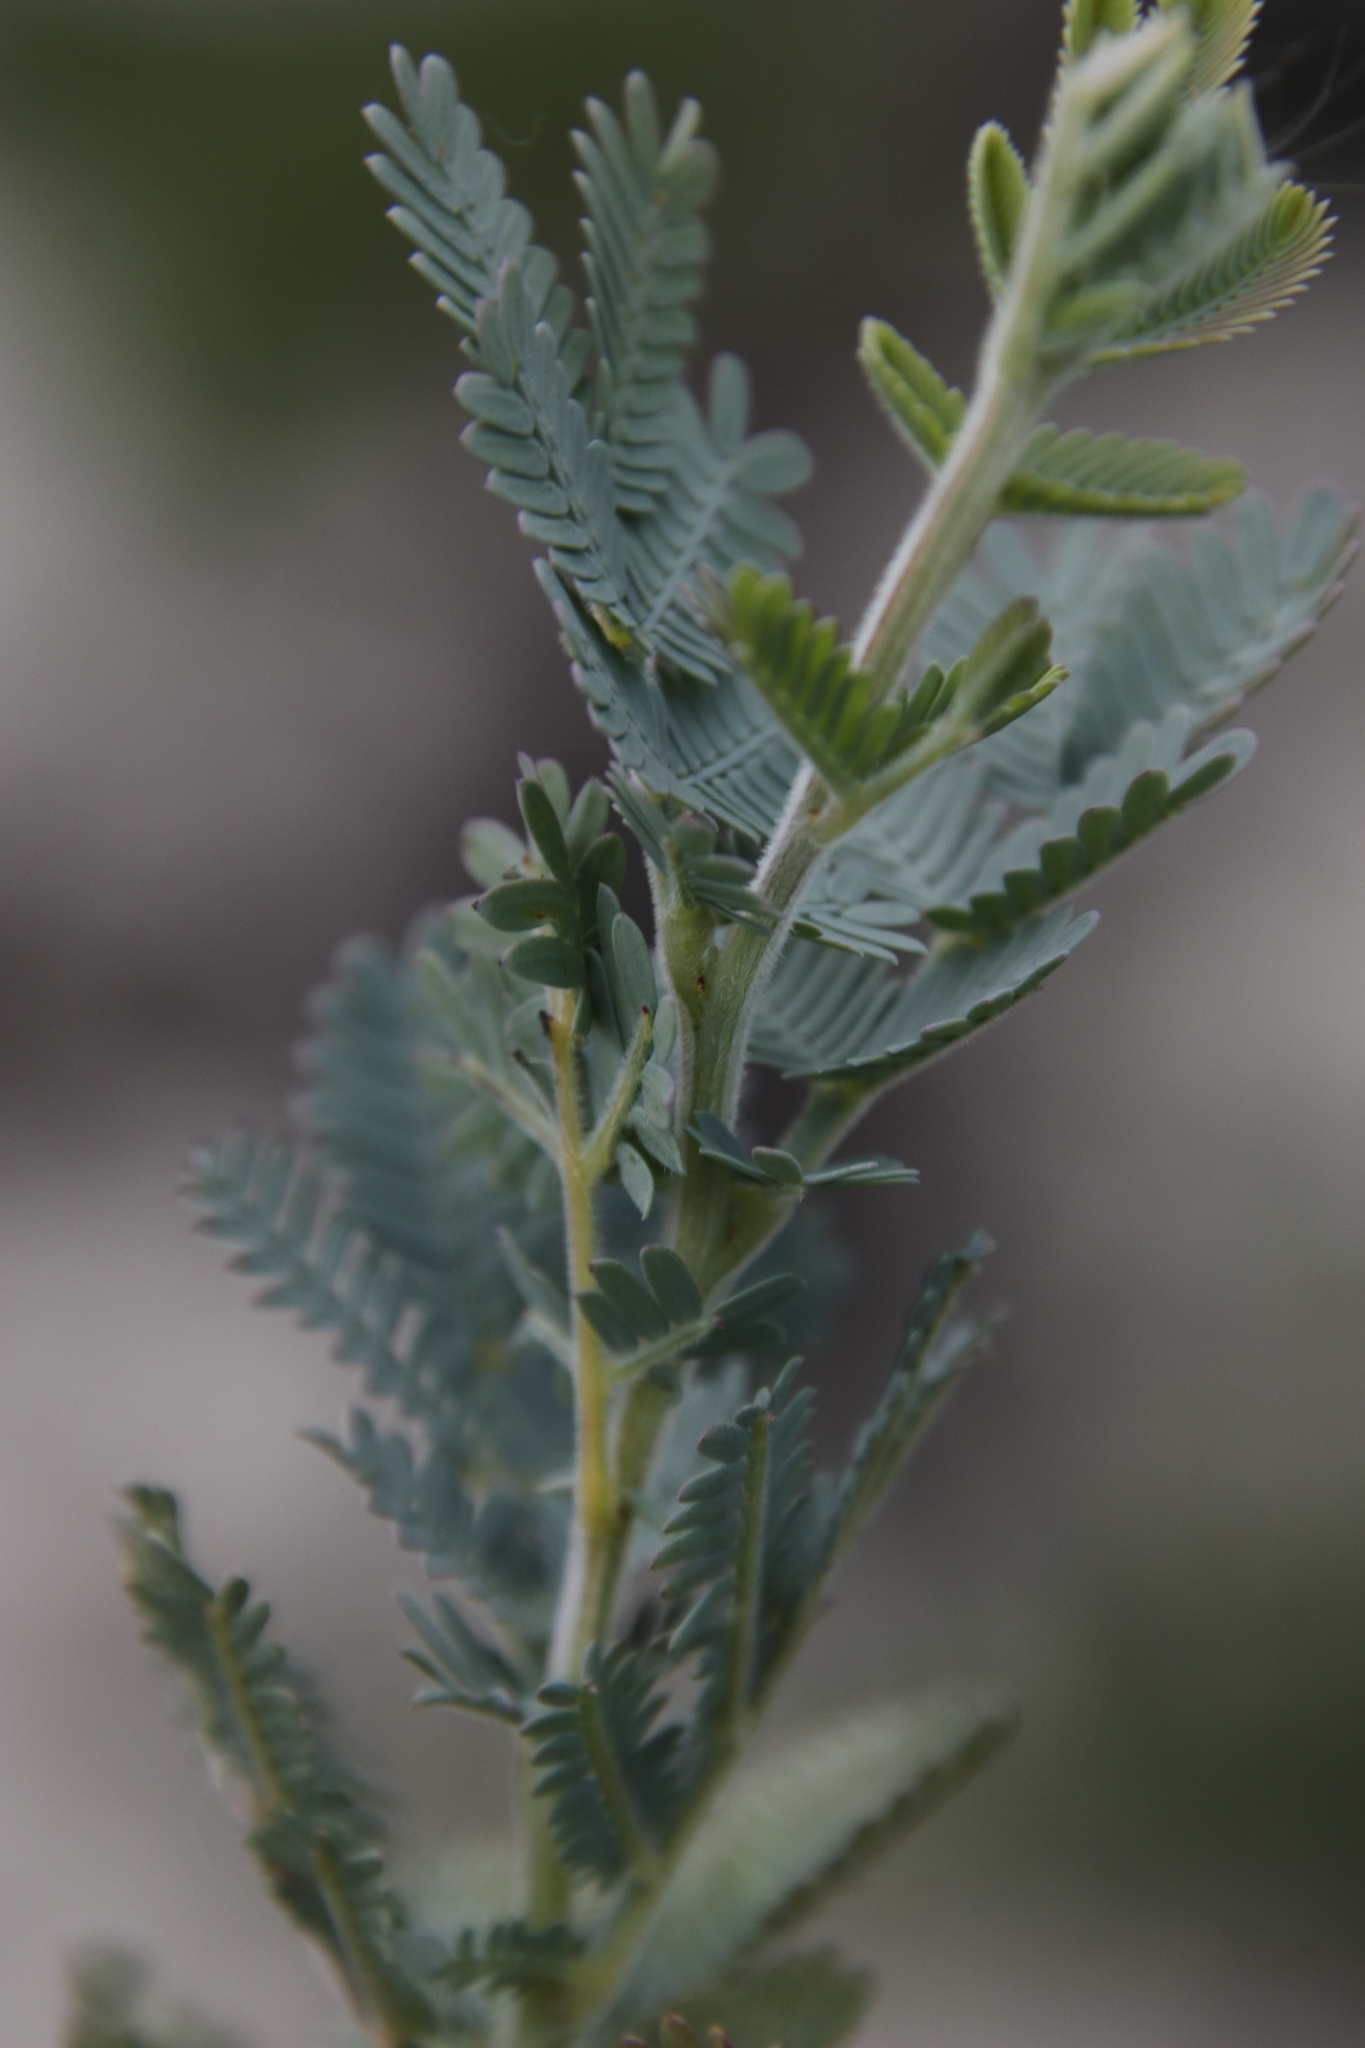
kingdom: Plantae
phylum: Tracheophyta
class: Magnoliopsida
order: Fabales
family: Fabaceae
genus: Acacia
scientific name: Acacia baileyana
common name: Cootamundra wattle
